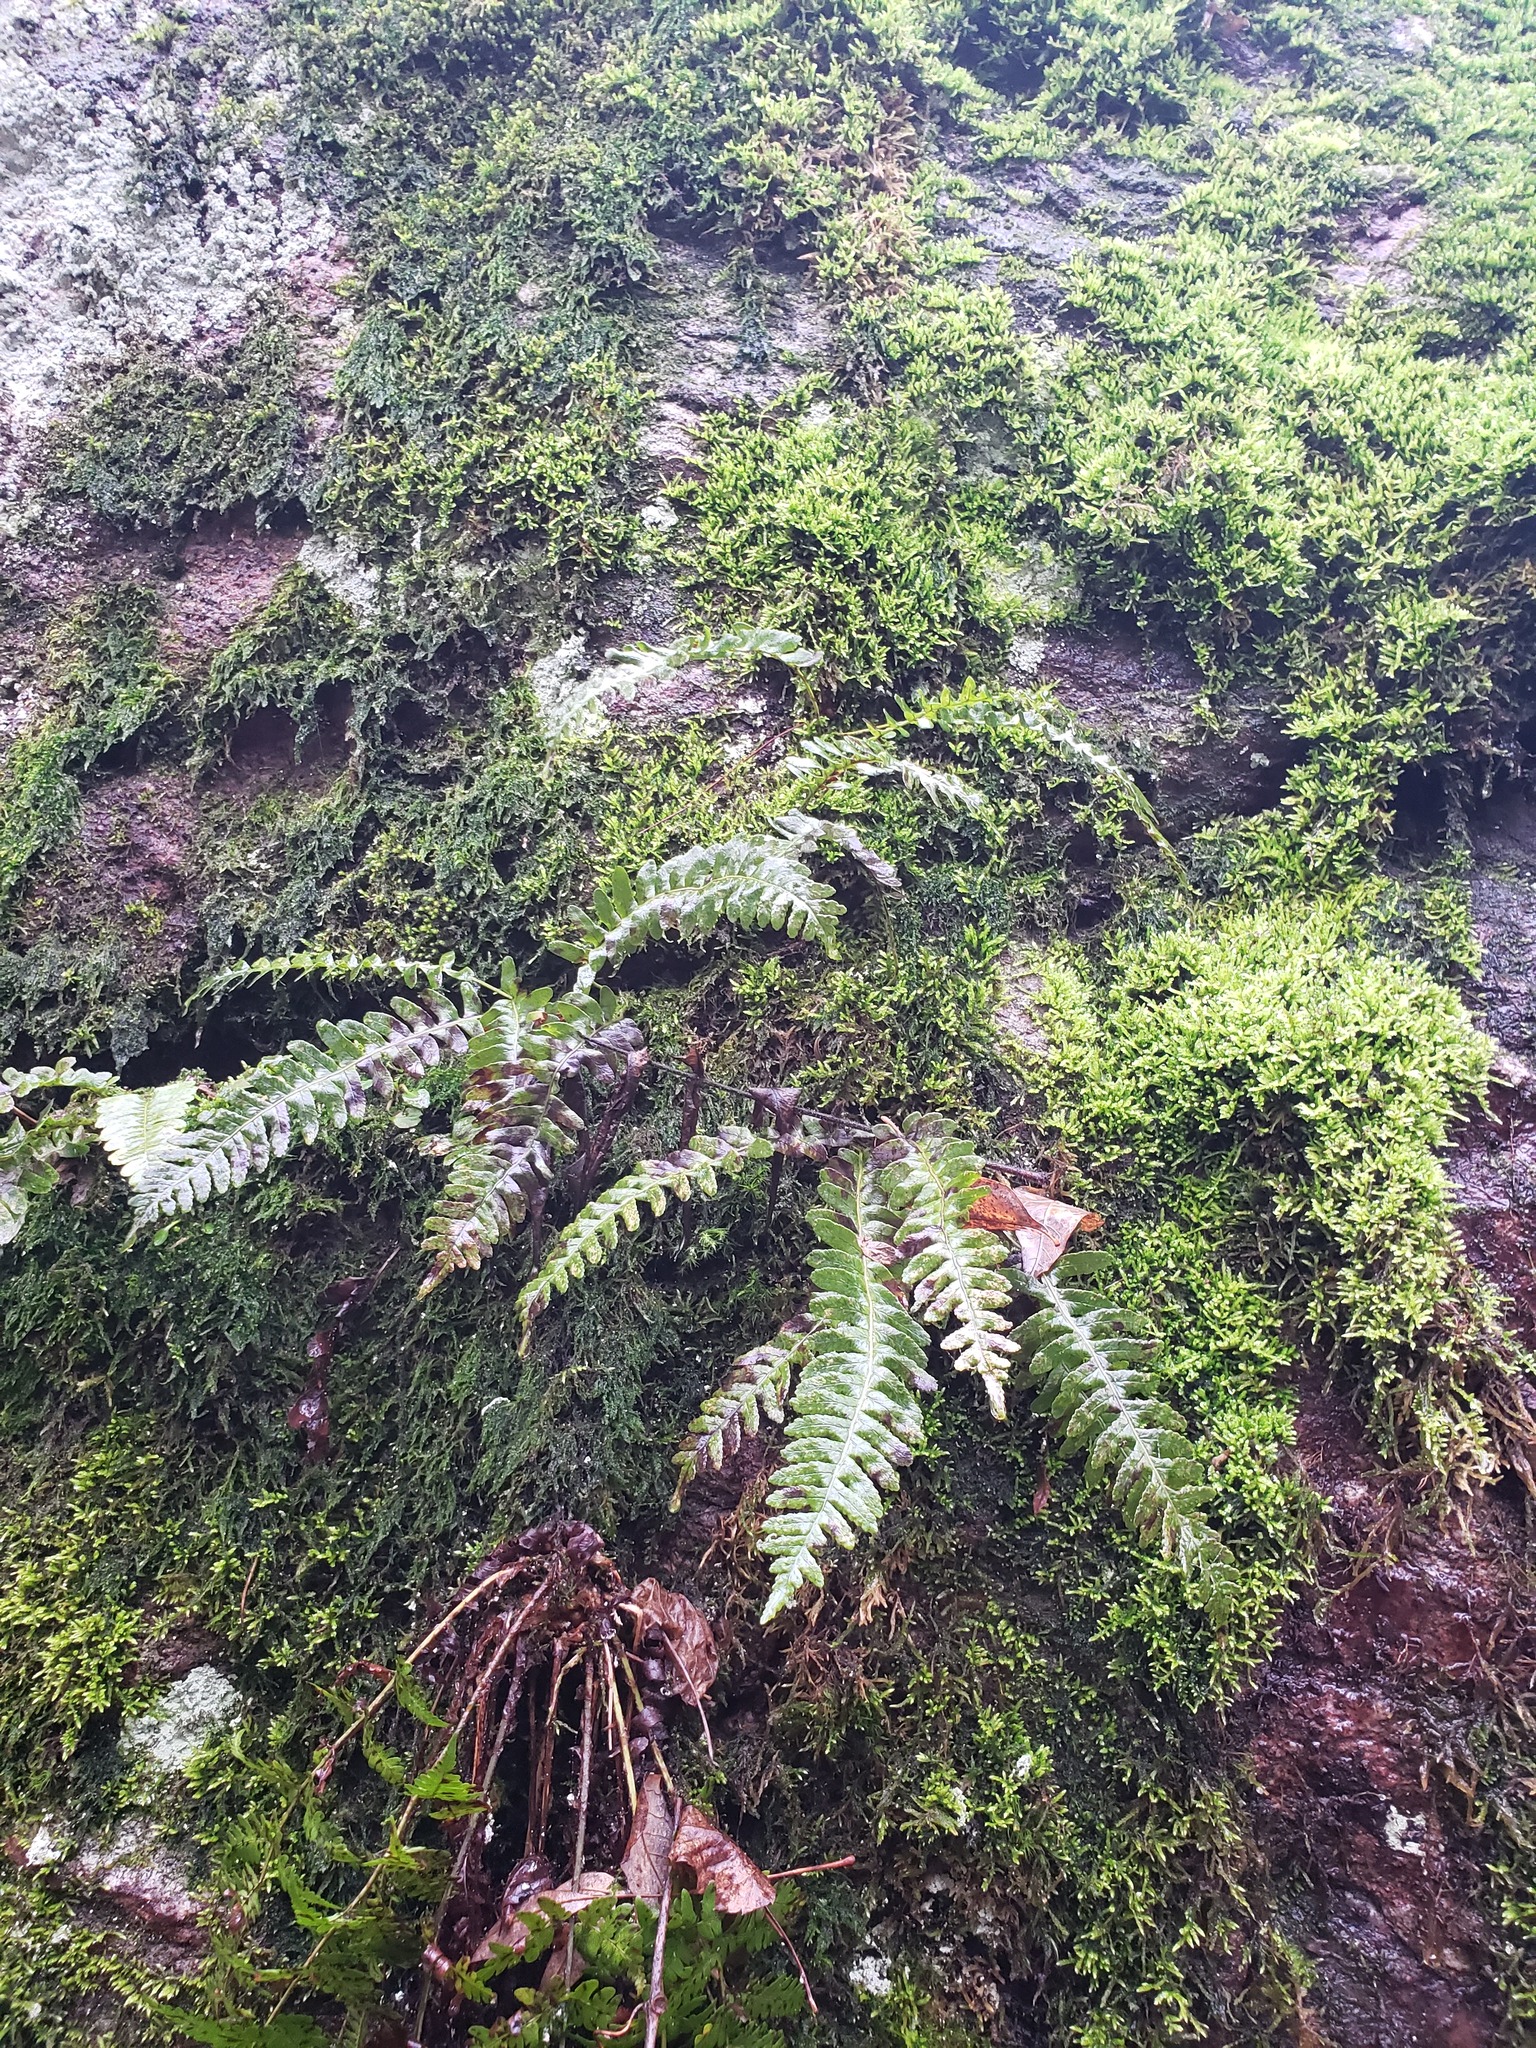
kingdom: Plantae
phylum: Tracheophyta
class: Polypodiopsida
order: Polypodiales
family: Polypodiaceae
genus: Polypodium
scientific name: Polypodium virginianum
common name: American wall fern
